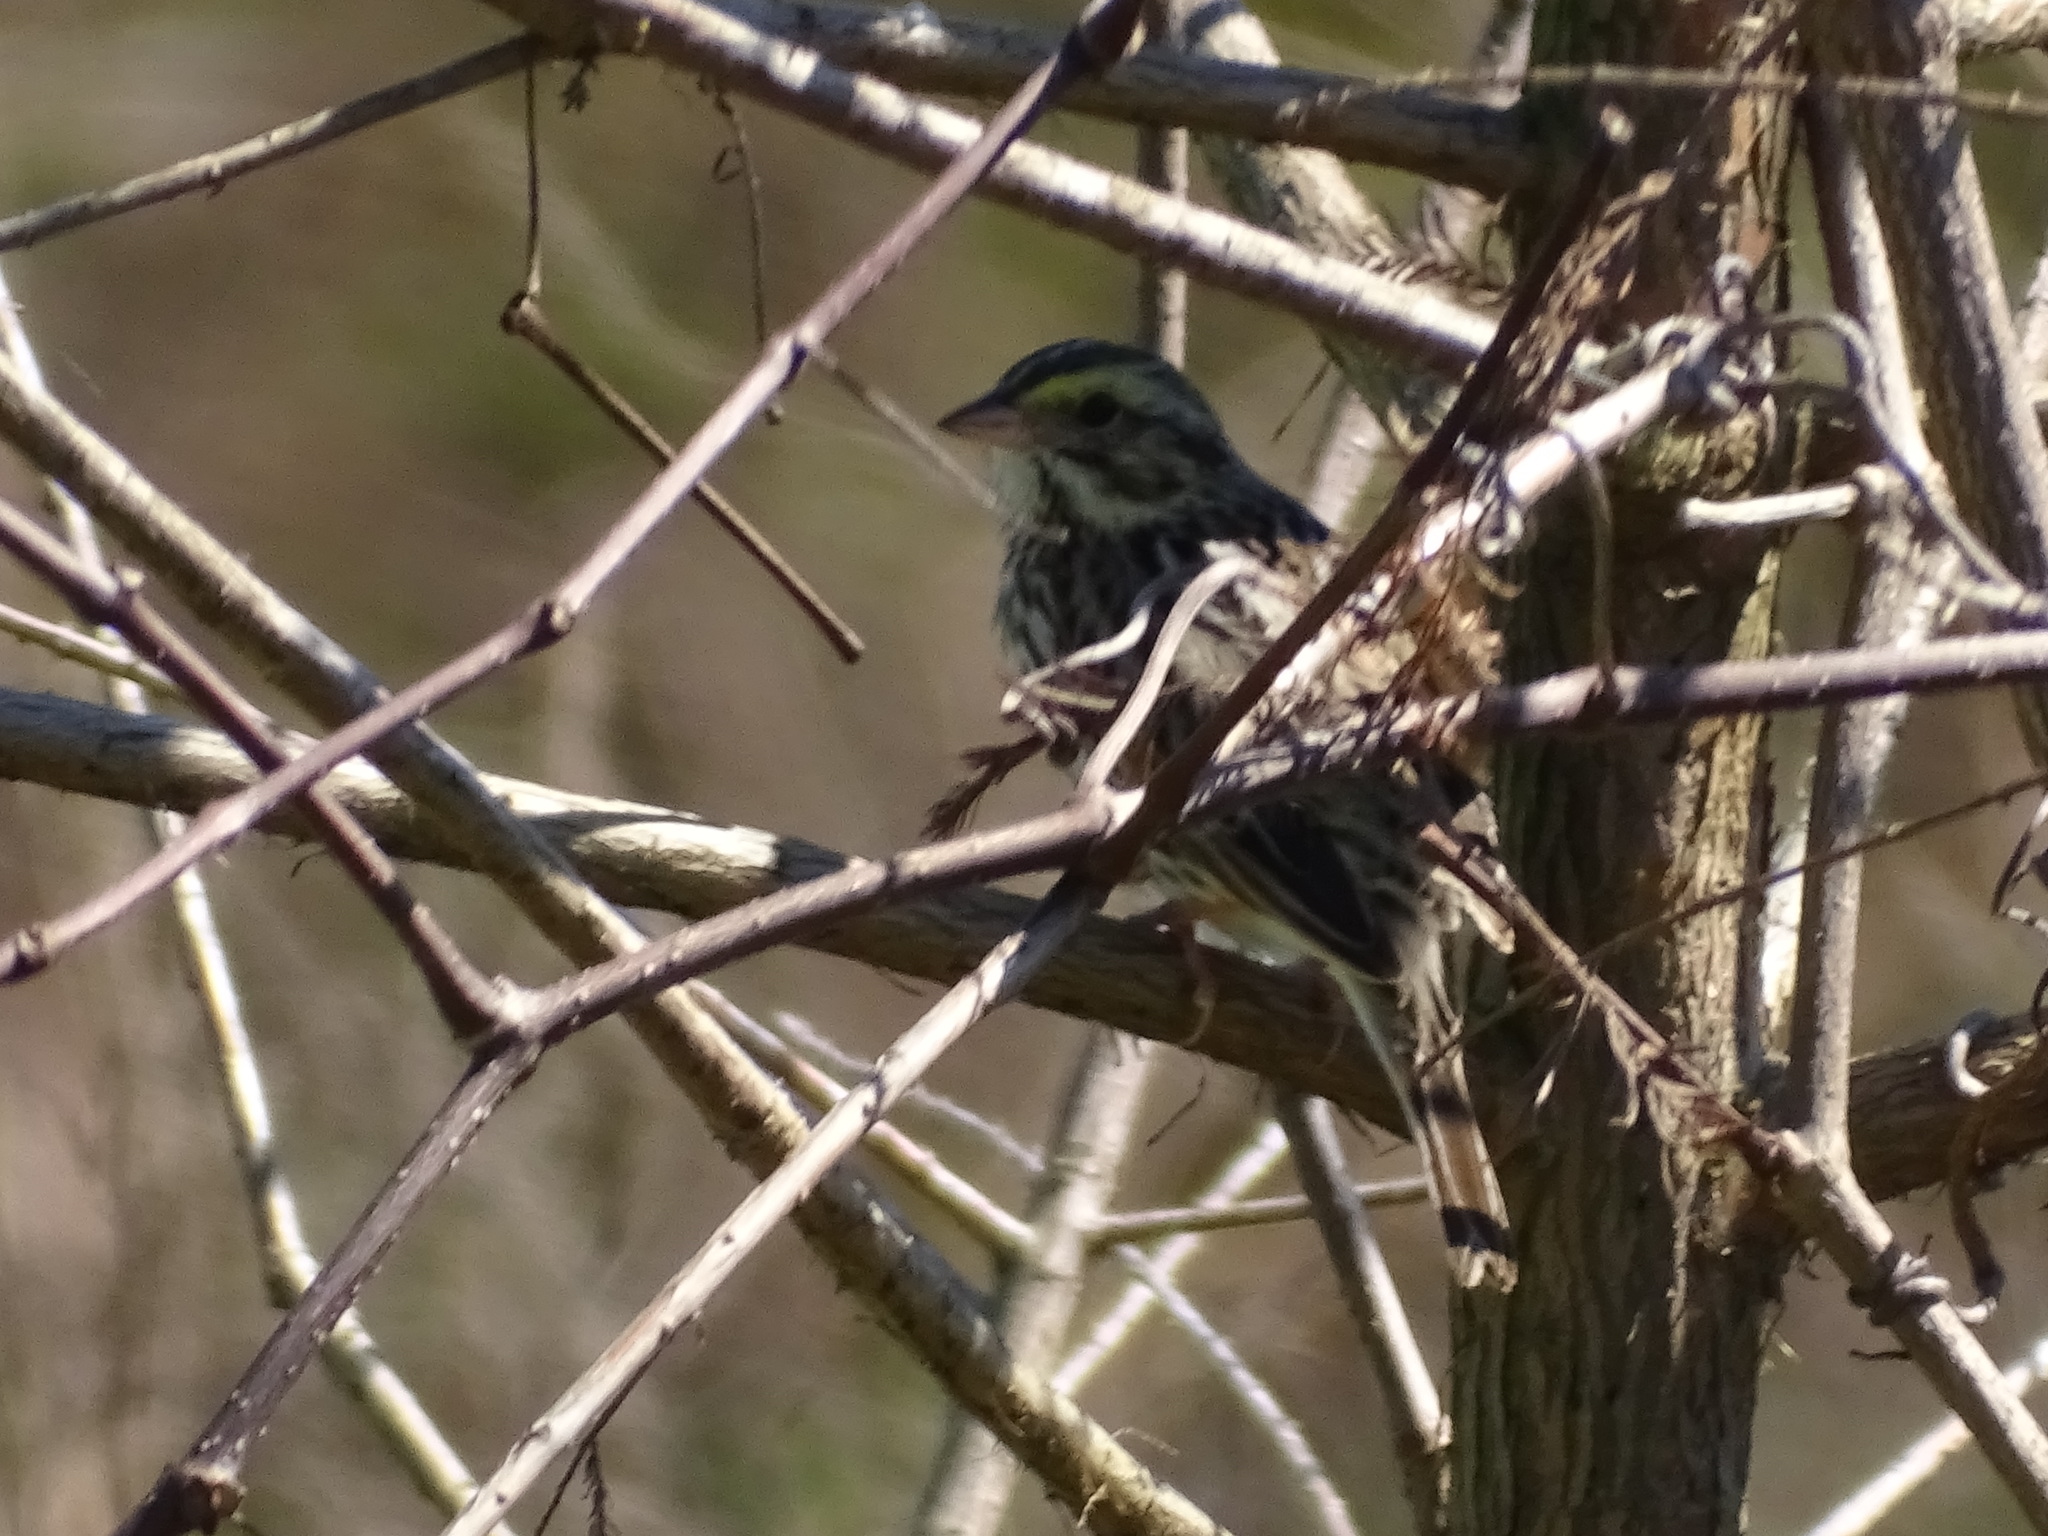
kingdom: Animalia
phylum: Chordata
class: Aves
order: Passeriformes
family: Passerellidae
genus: Passerculus
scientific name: Passerculus sandwichensis
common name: Savannah sparrow
